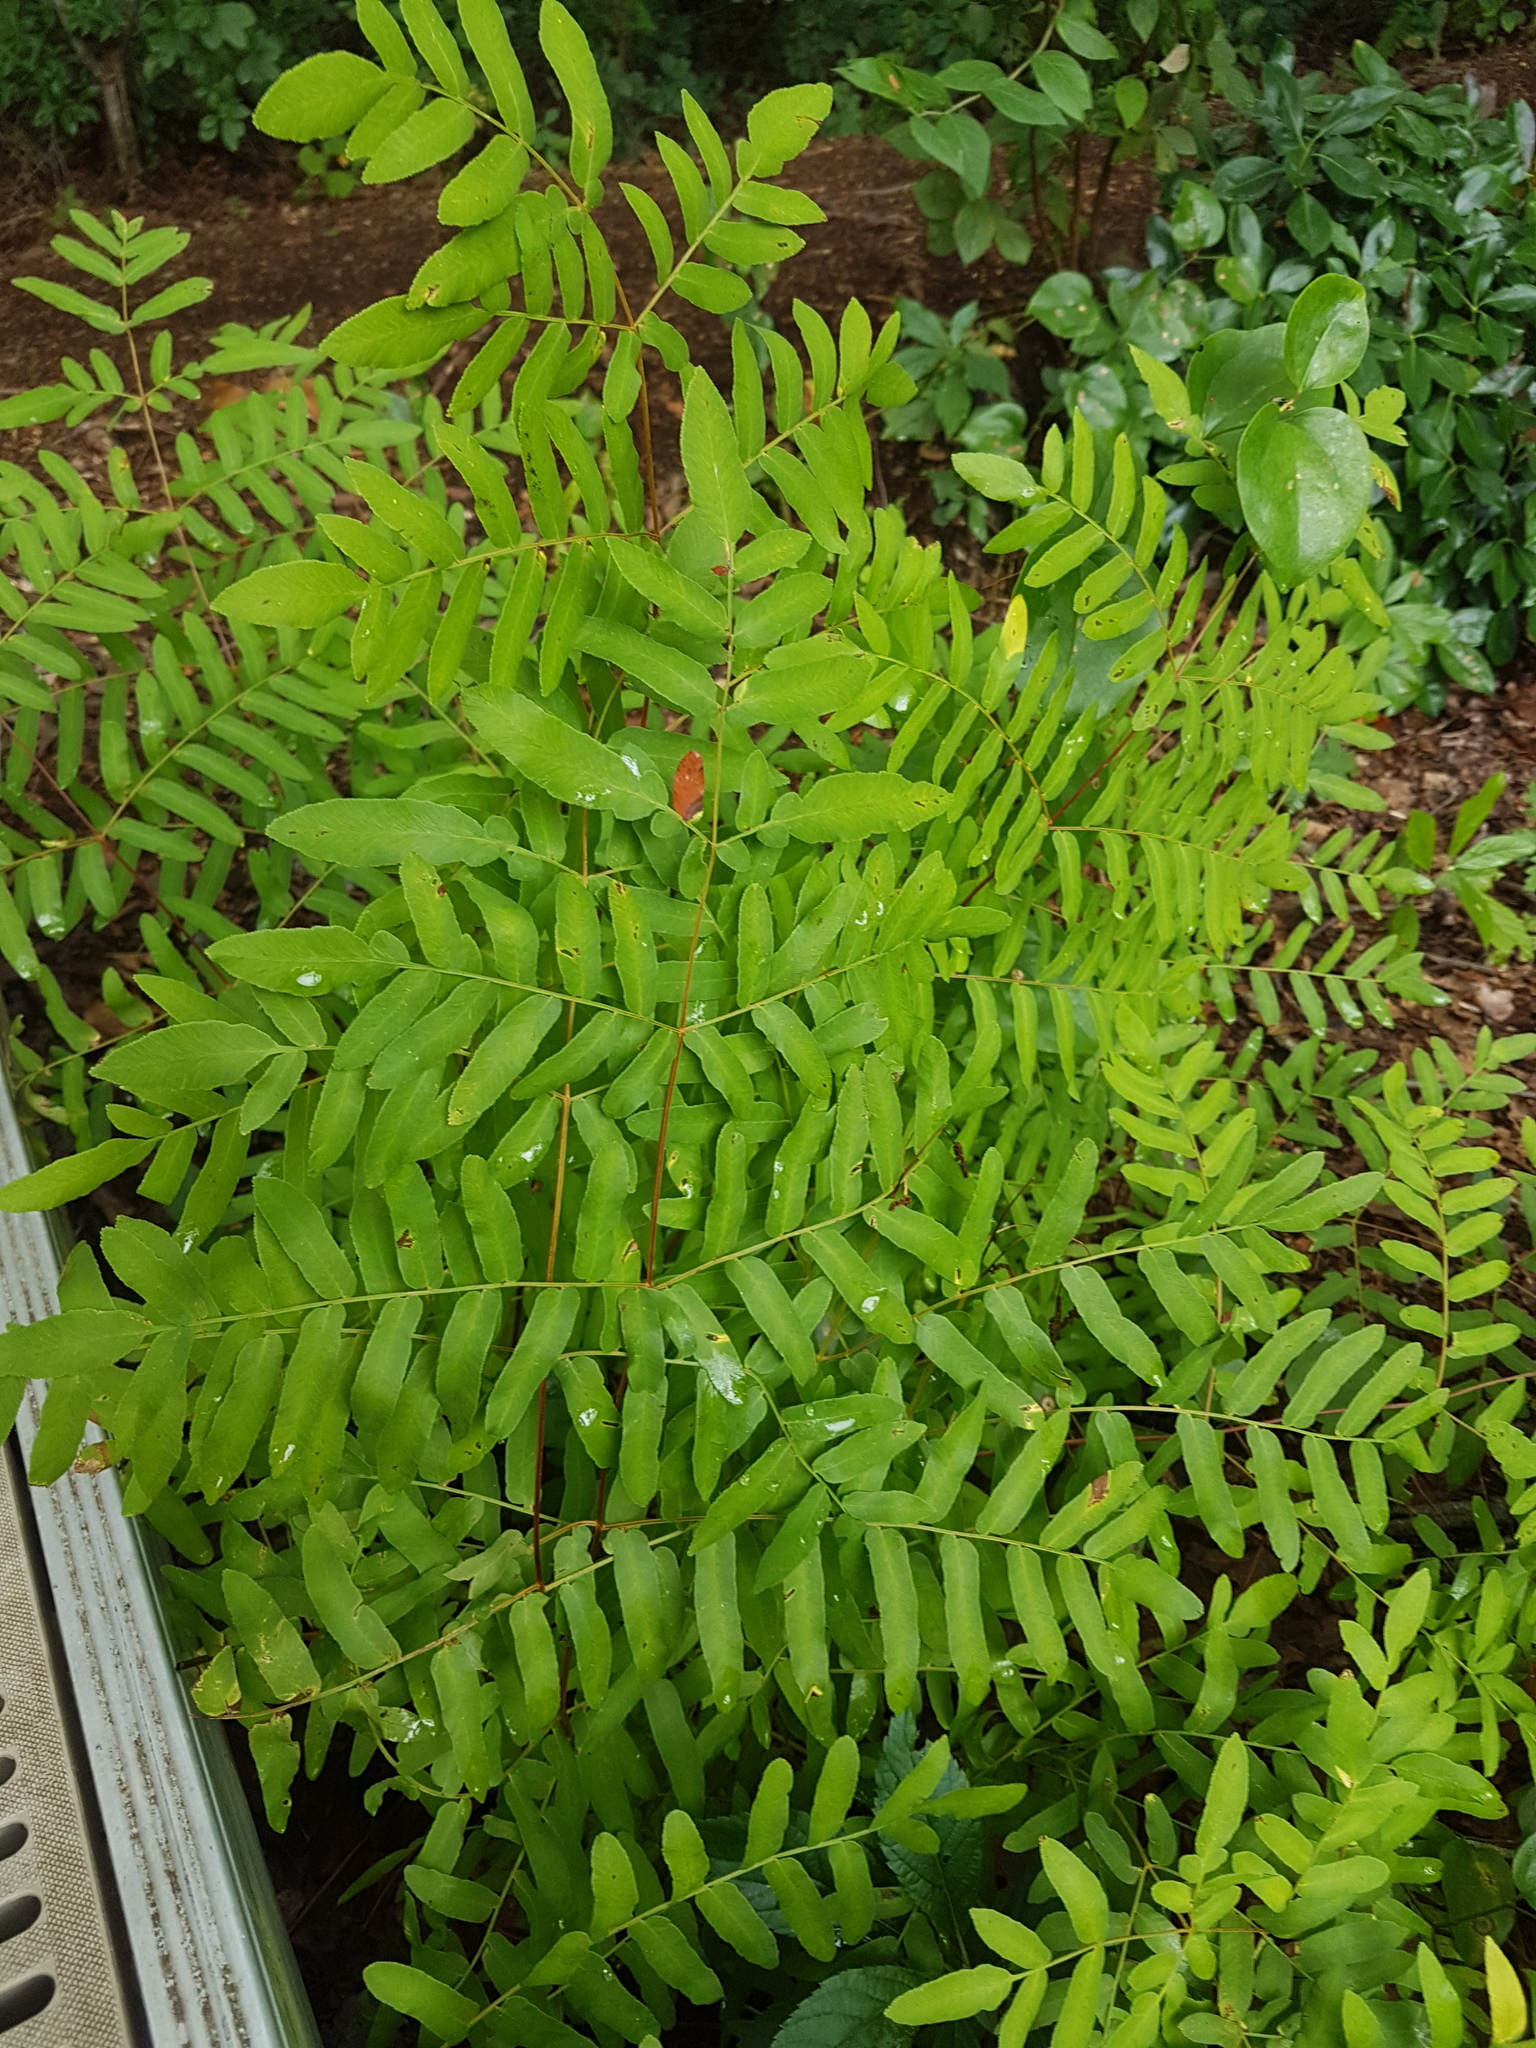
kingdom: Plantae
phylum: Tracheophyta
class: Polypodiopsida
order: Osmundales
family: Osmundaceae
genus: Osmunda
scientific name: Osmunda spectabilis
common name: American royal fern
